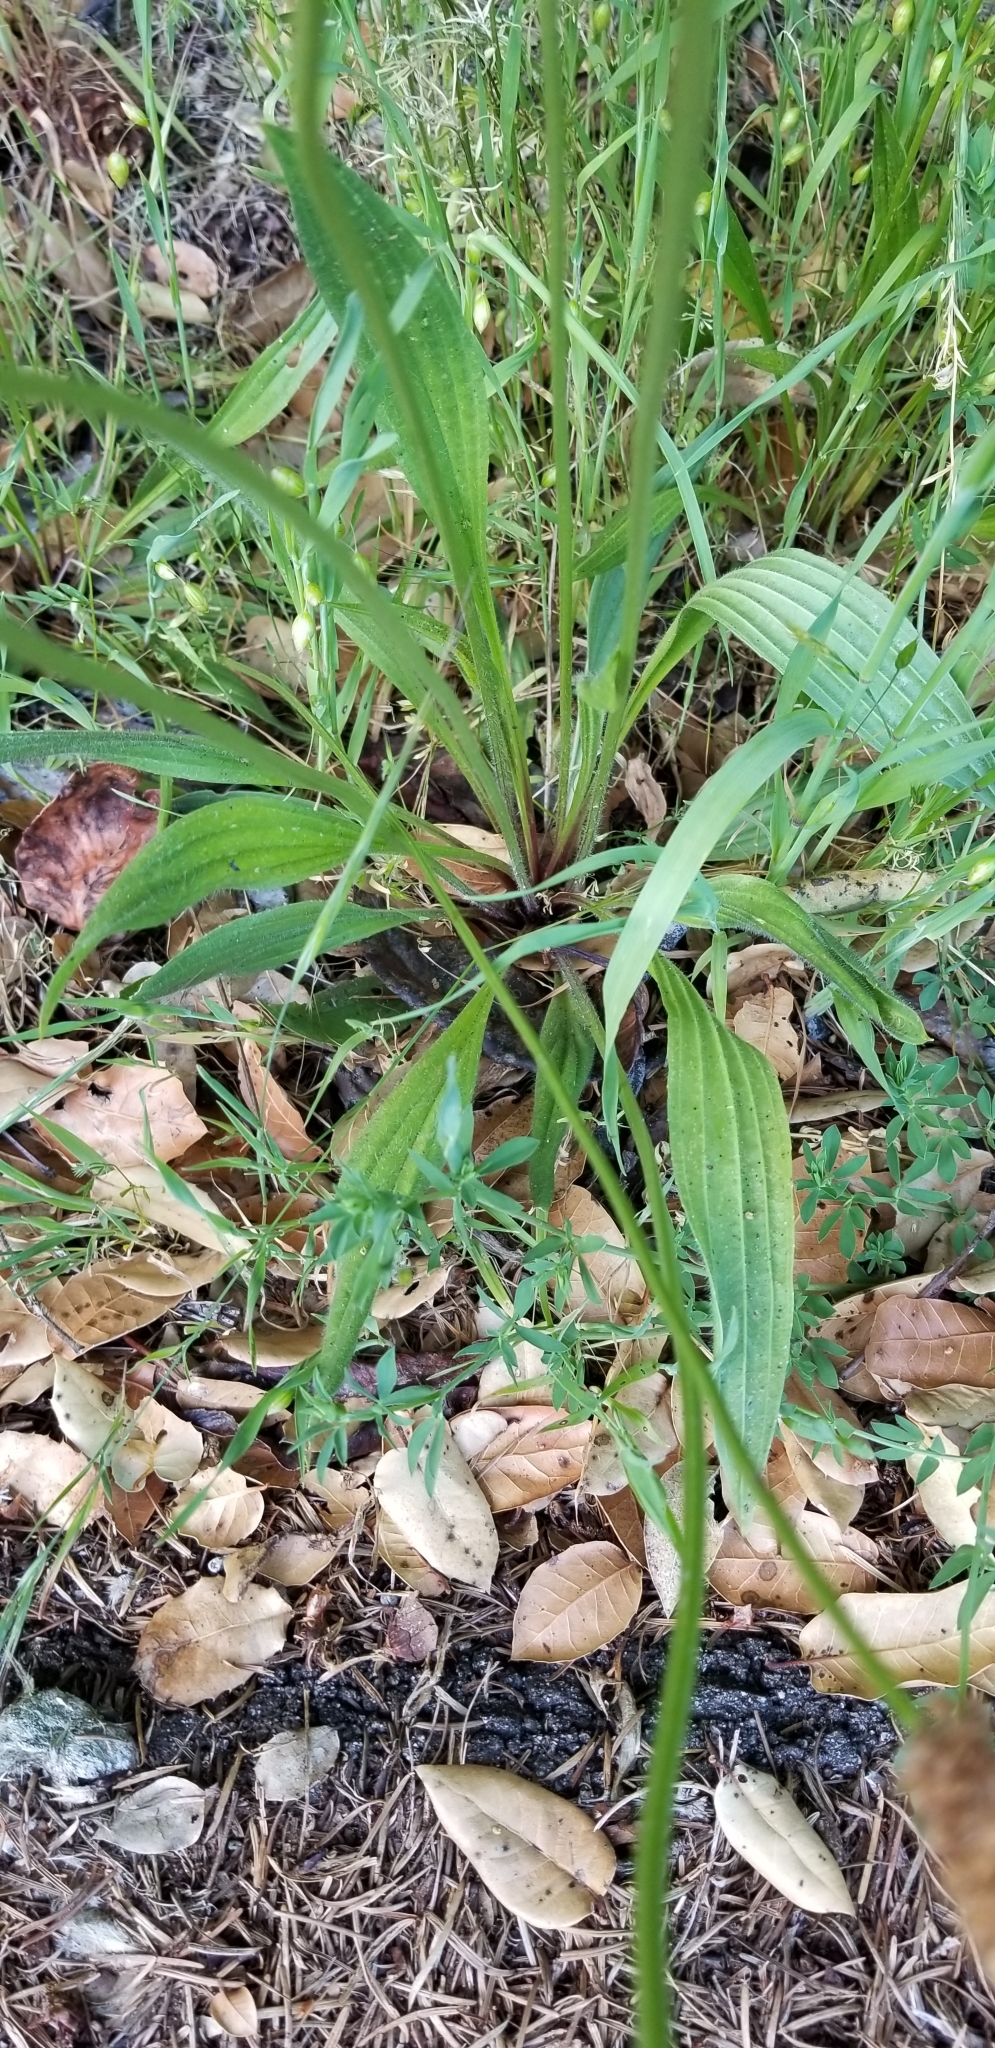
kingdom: Plantae
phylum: Tracheophyta
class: Magnoliopsida
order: Lamiales
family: Plantaginaceae
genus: Plantago
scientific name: Plantago lanceolata
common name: Ribwort plantain
